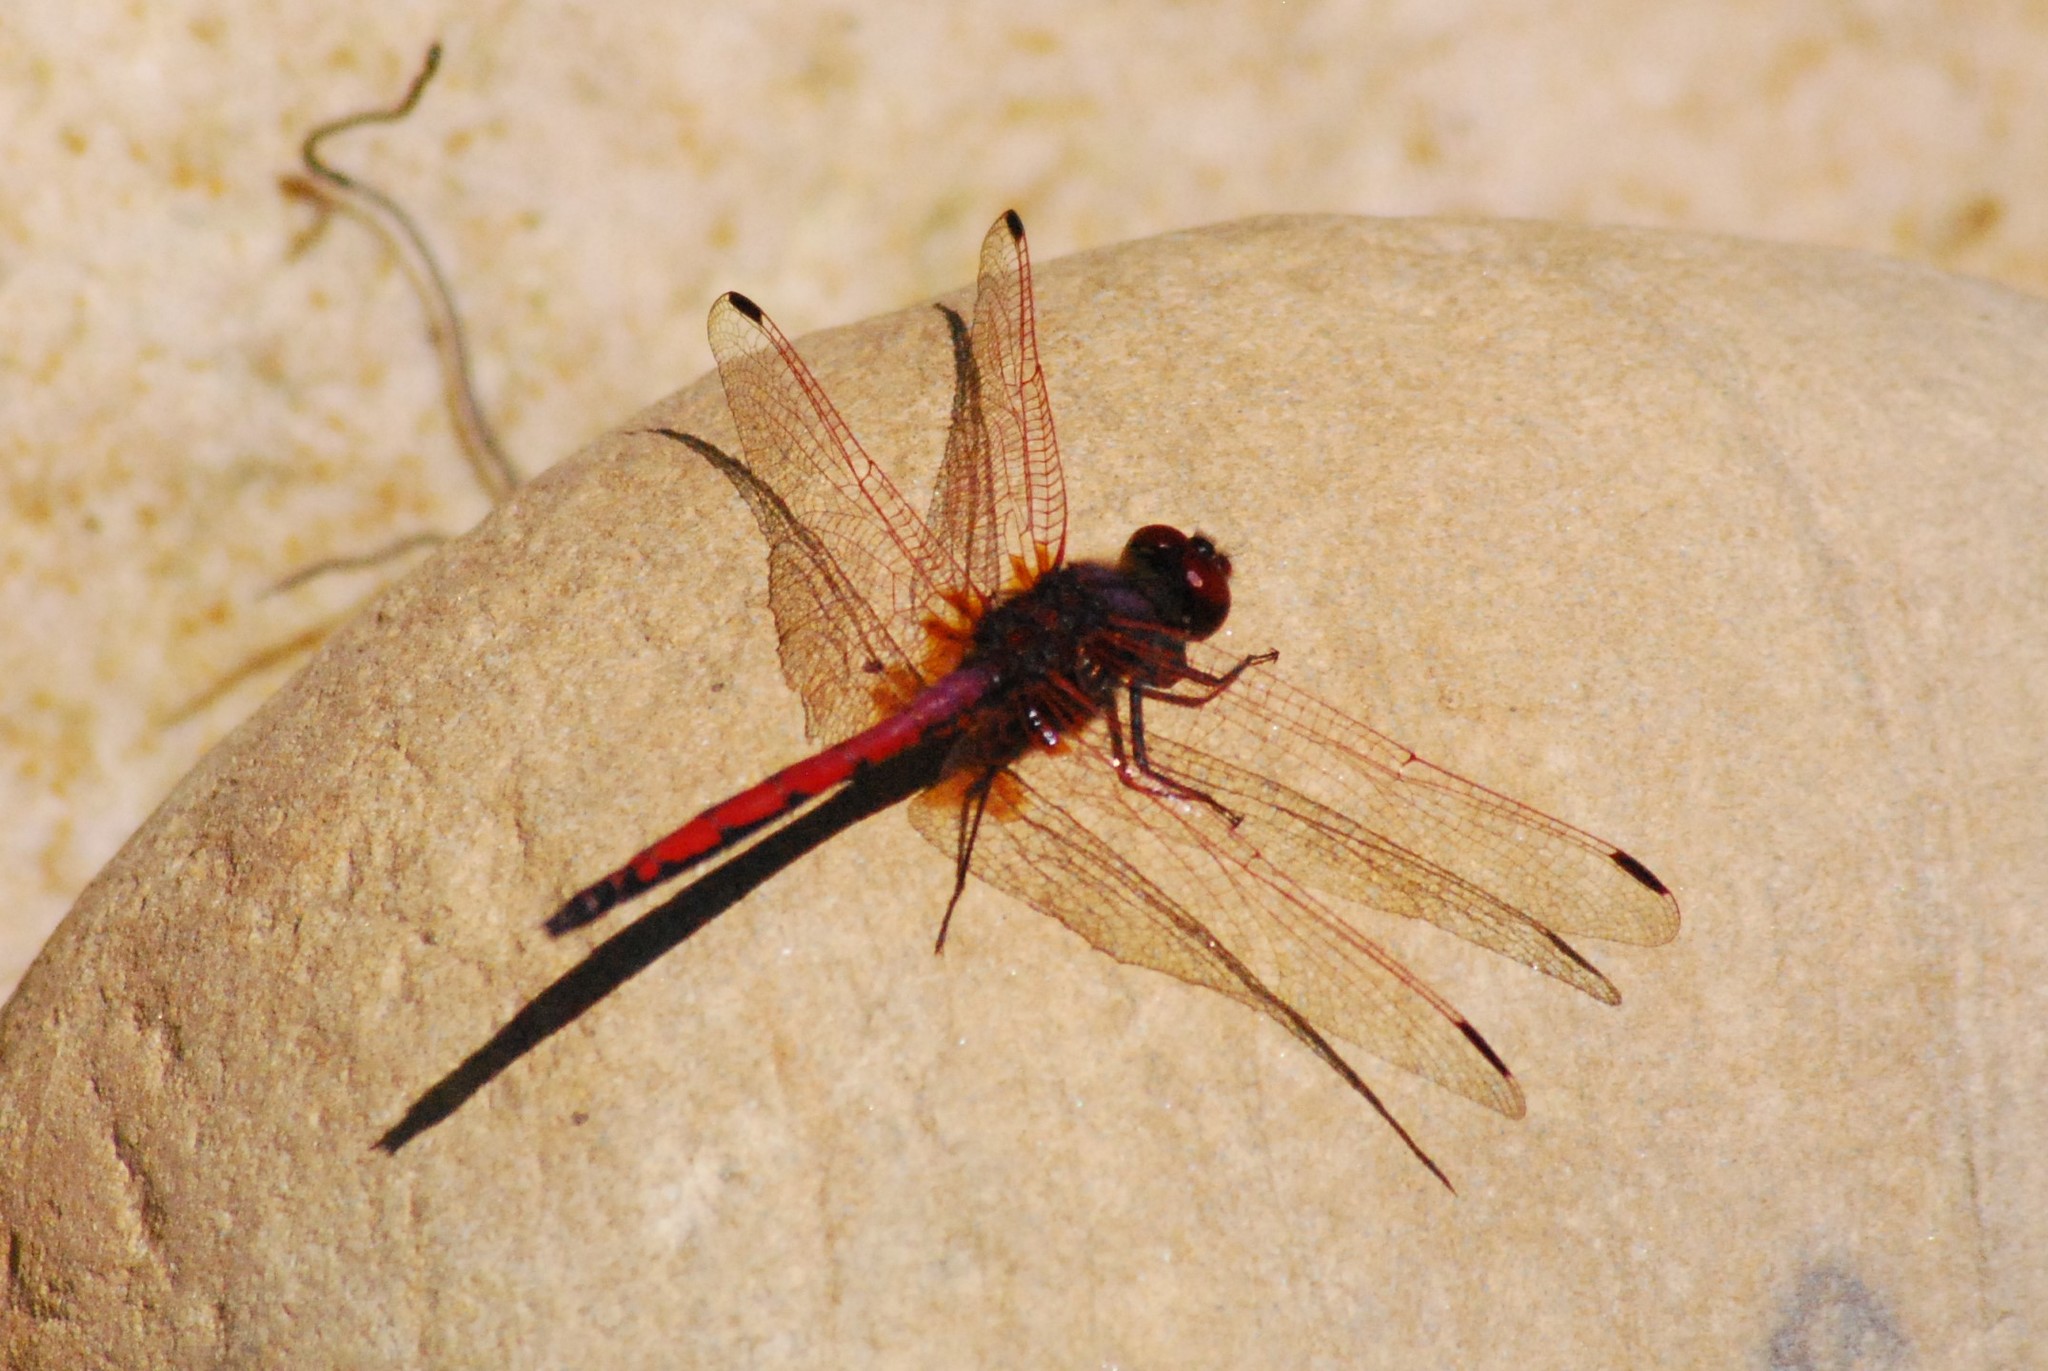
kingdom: Animalia
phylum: Arthropoda
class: Insecta
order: Odonata
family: Libellulidae
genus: Trithemis
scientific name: Trithemis arteriosa
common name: Red-veined dropwing
